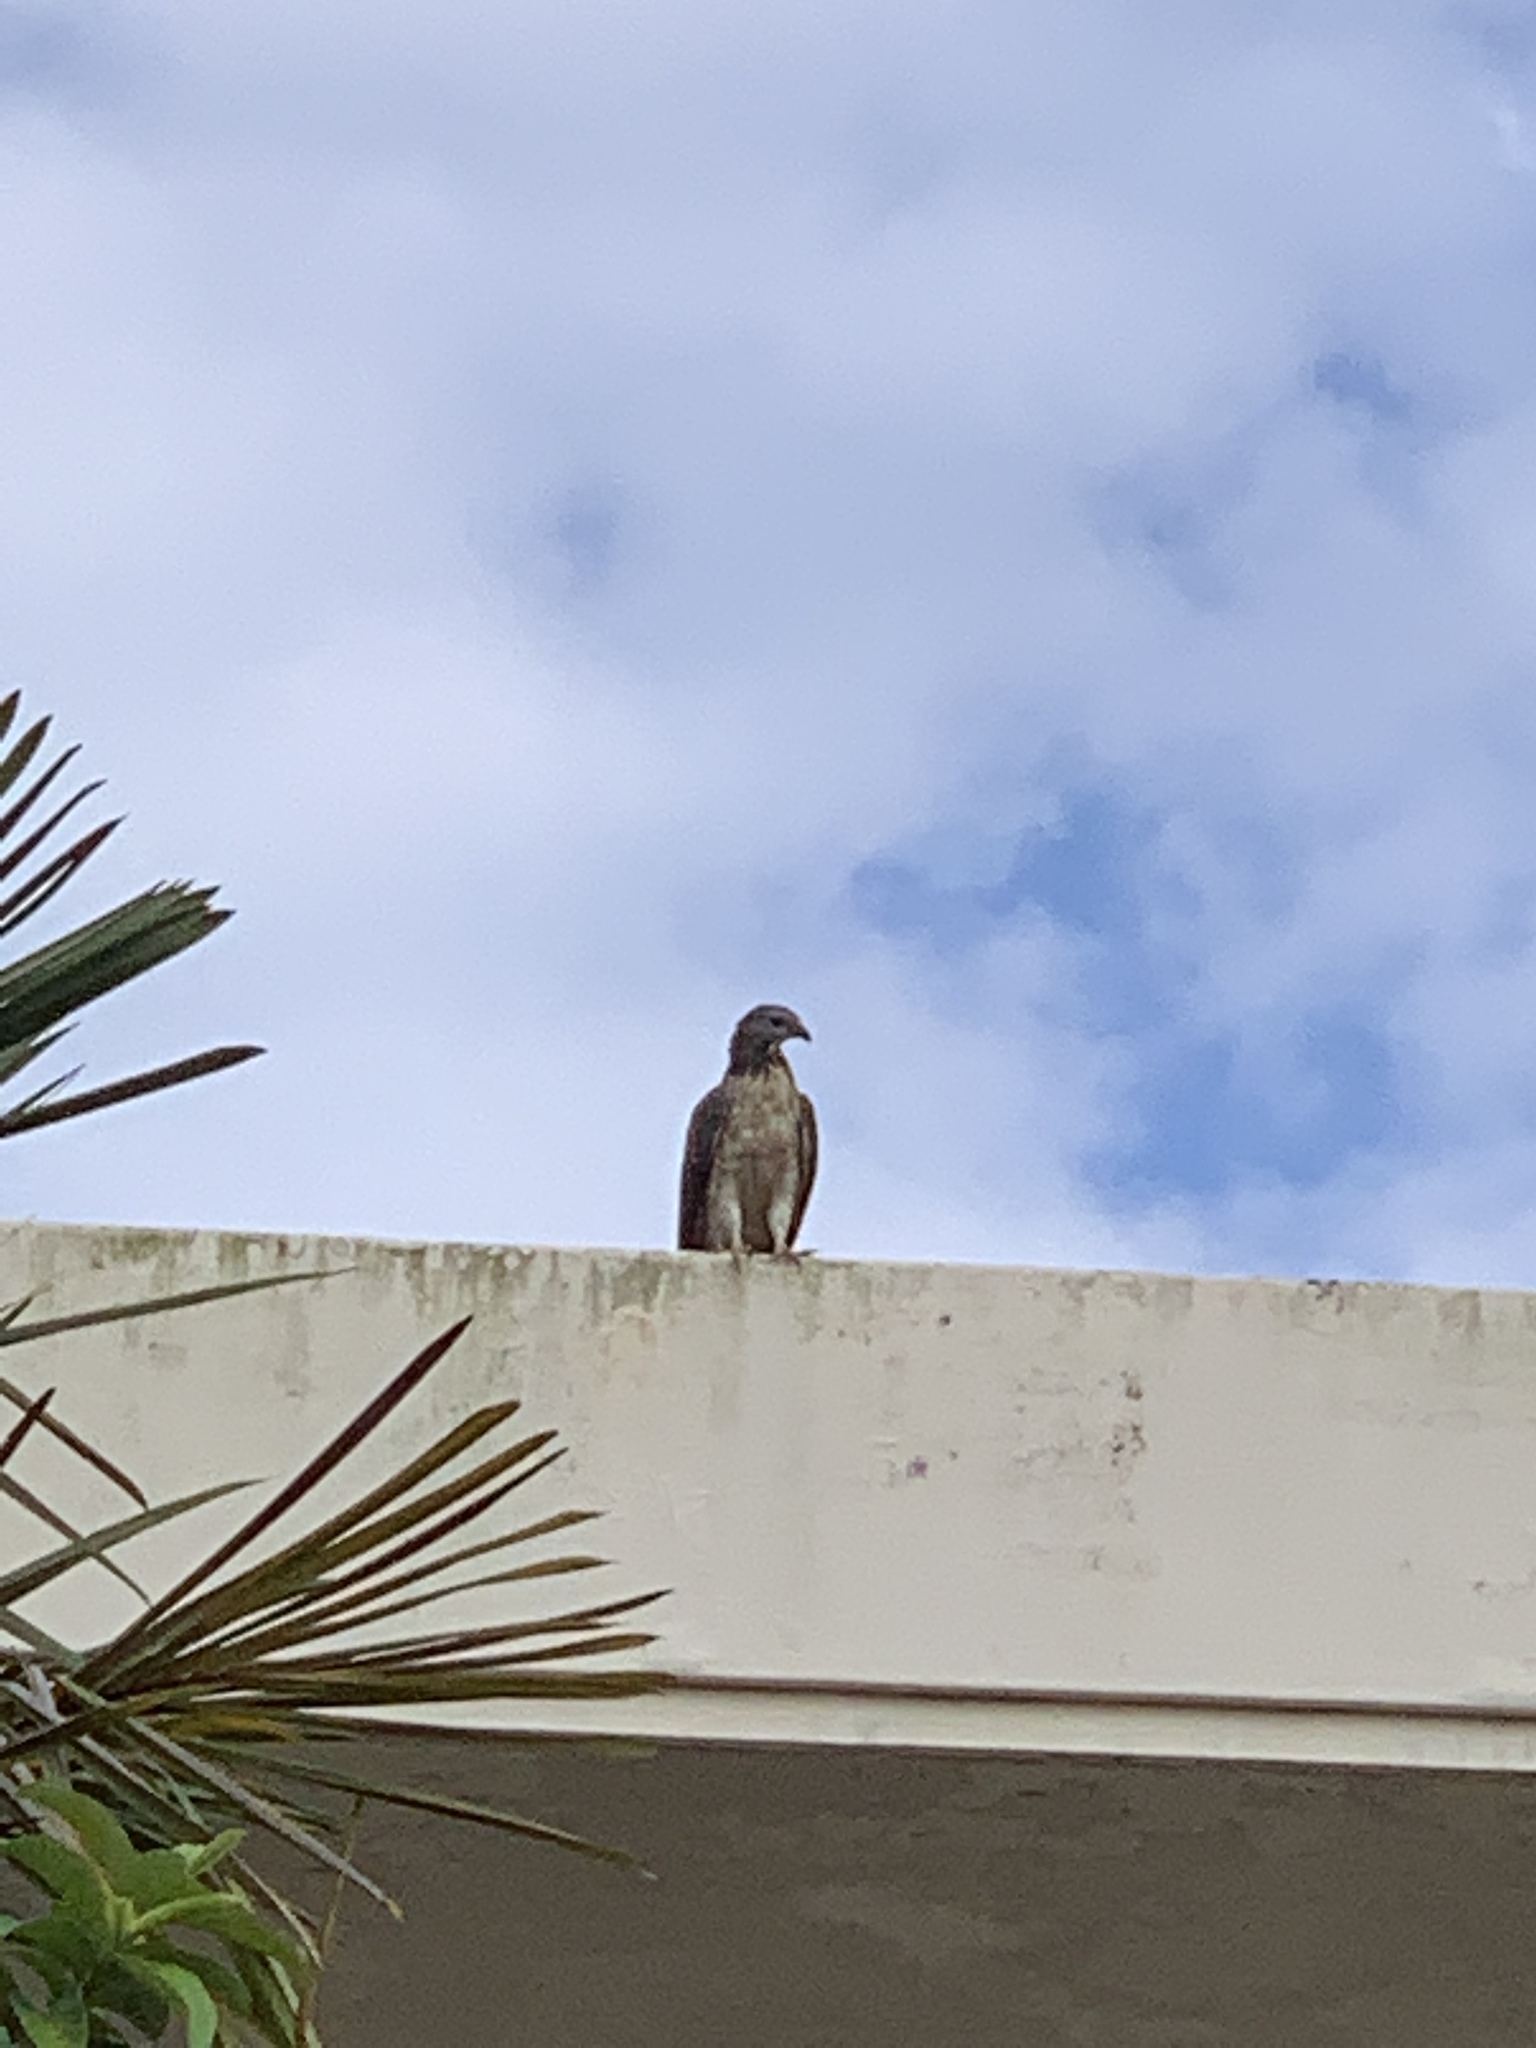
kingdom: Animalia
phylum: Chordata
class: Aves
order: Accipitriformes
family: Accipitridae
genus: Pernis
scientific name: Pernis ptilorhynchus
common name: Crested honey buzzard
